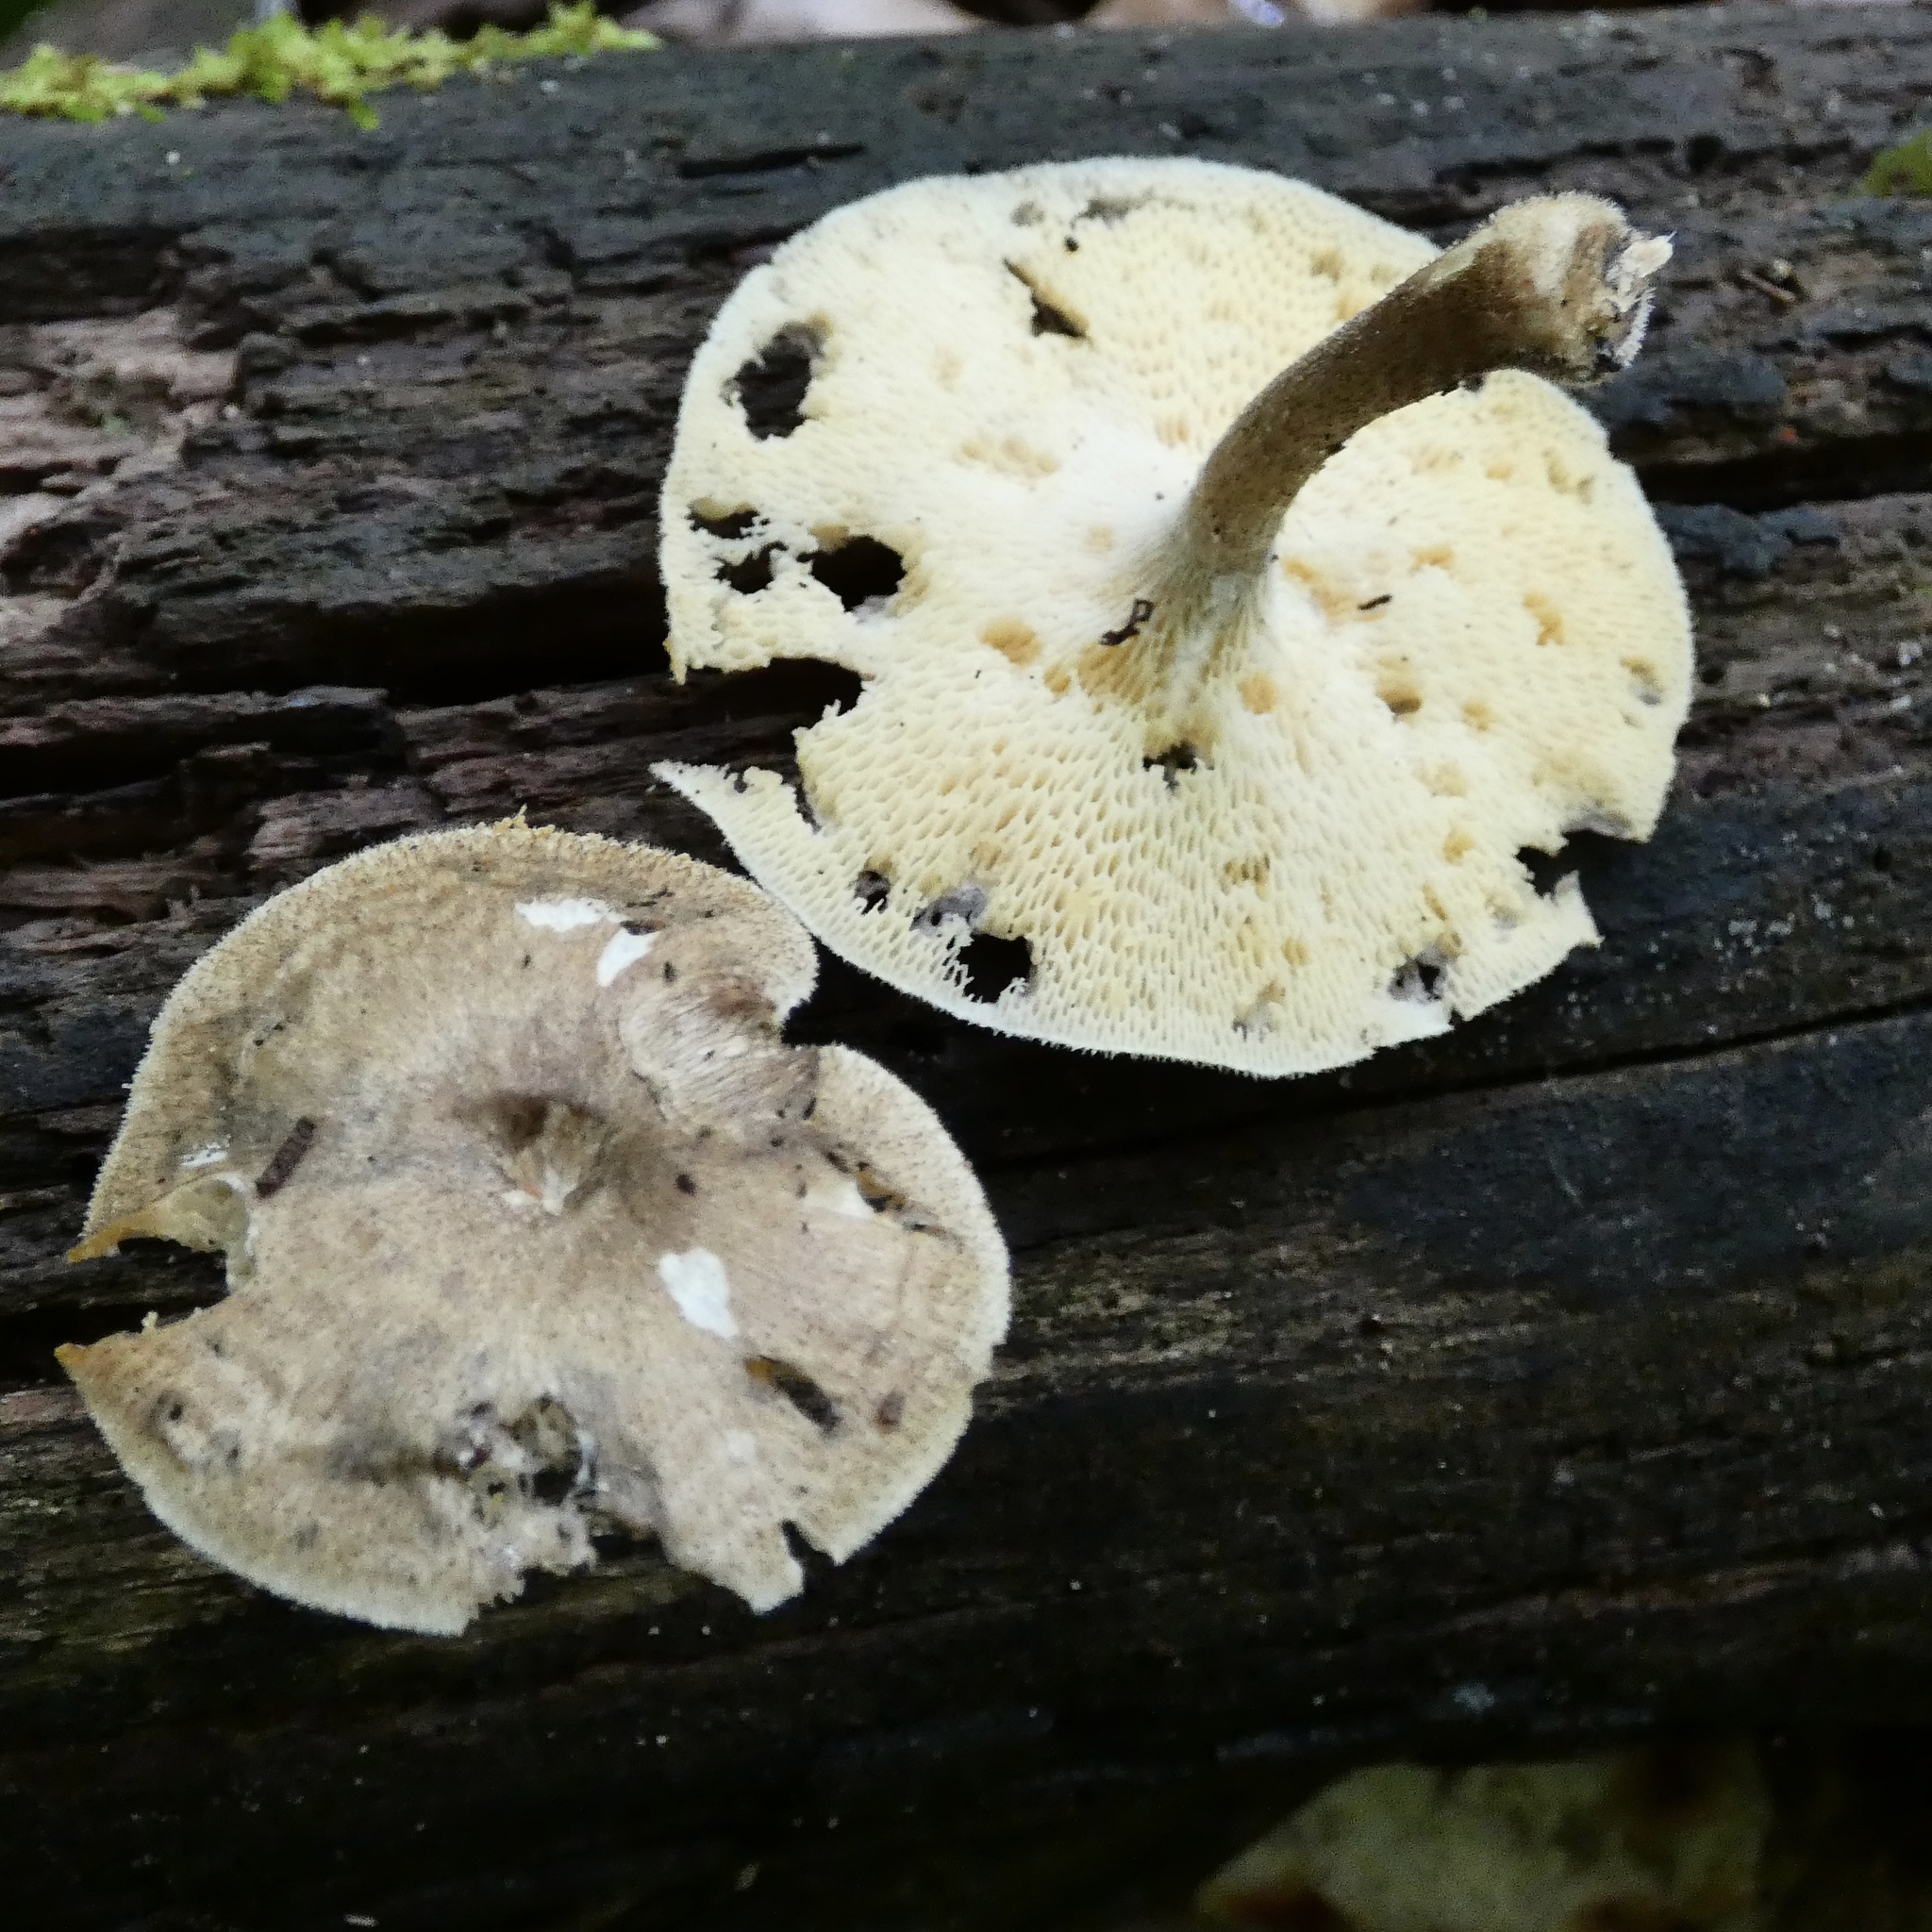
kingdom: Fungi
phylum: Basidiomycota
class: Agaricomycetes
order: Polyporales
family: Polyporaceae
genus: Lentinus
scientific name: Lentinus arcularius
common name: Spring polypore
